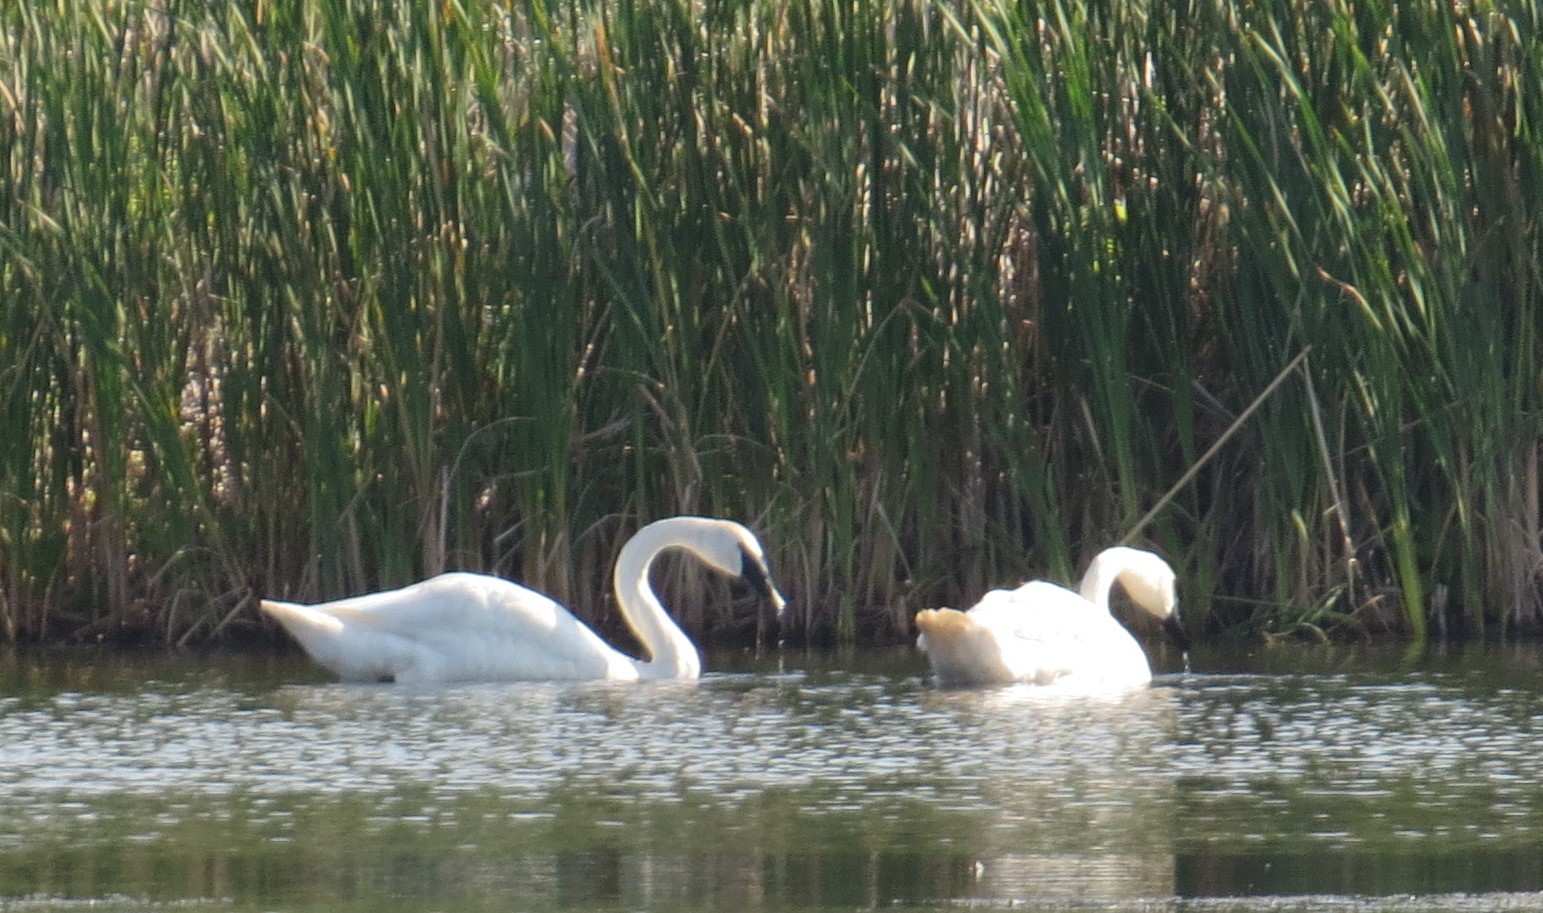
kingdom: Animalia
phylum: Chordata
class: Aves
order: Anseriformes
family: Anatidae
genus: Cygnus
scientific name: Cygnus buccinator
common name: Trumpeter swan
